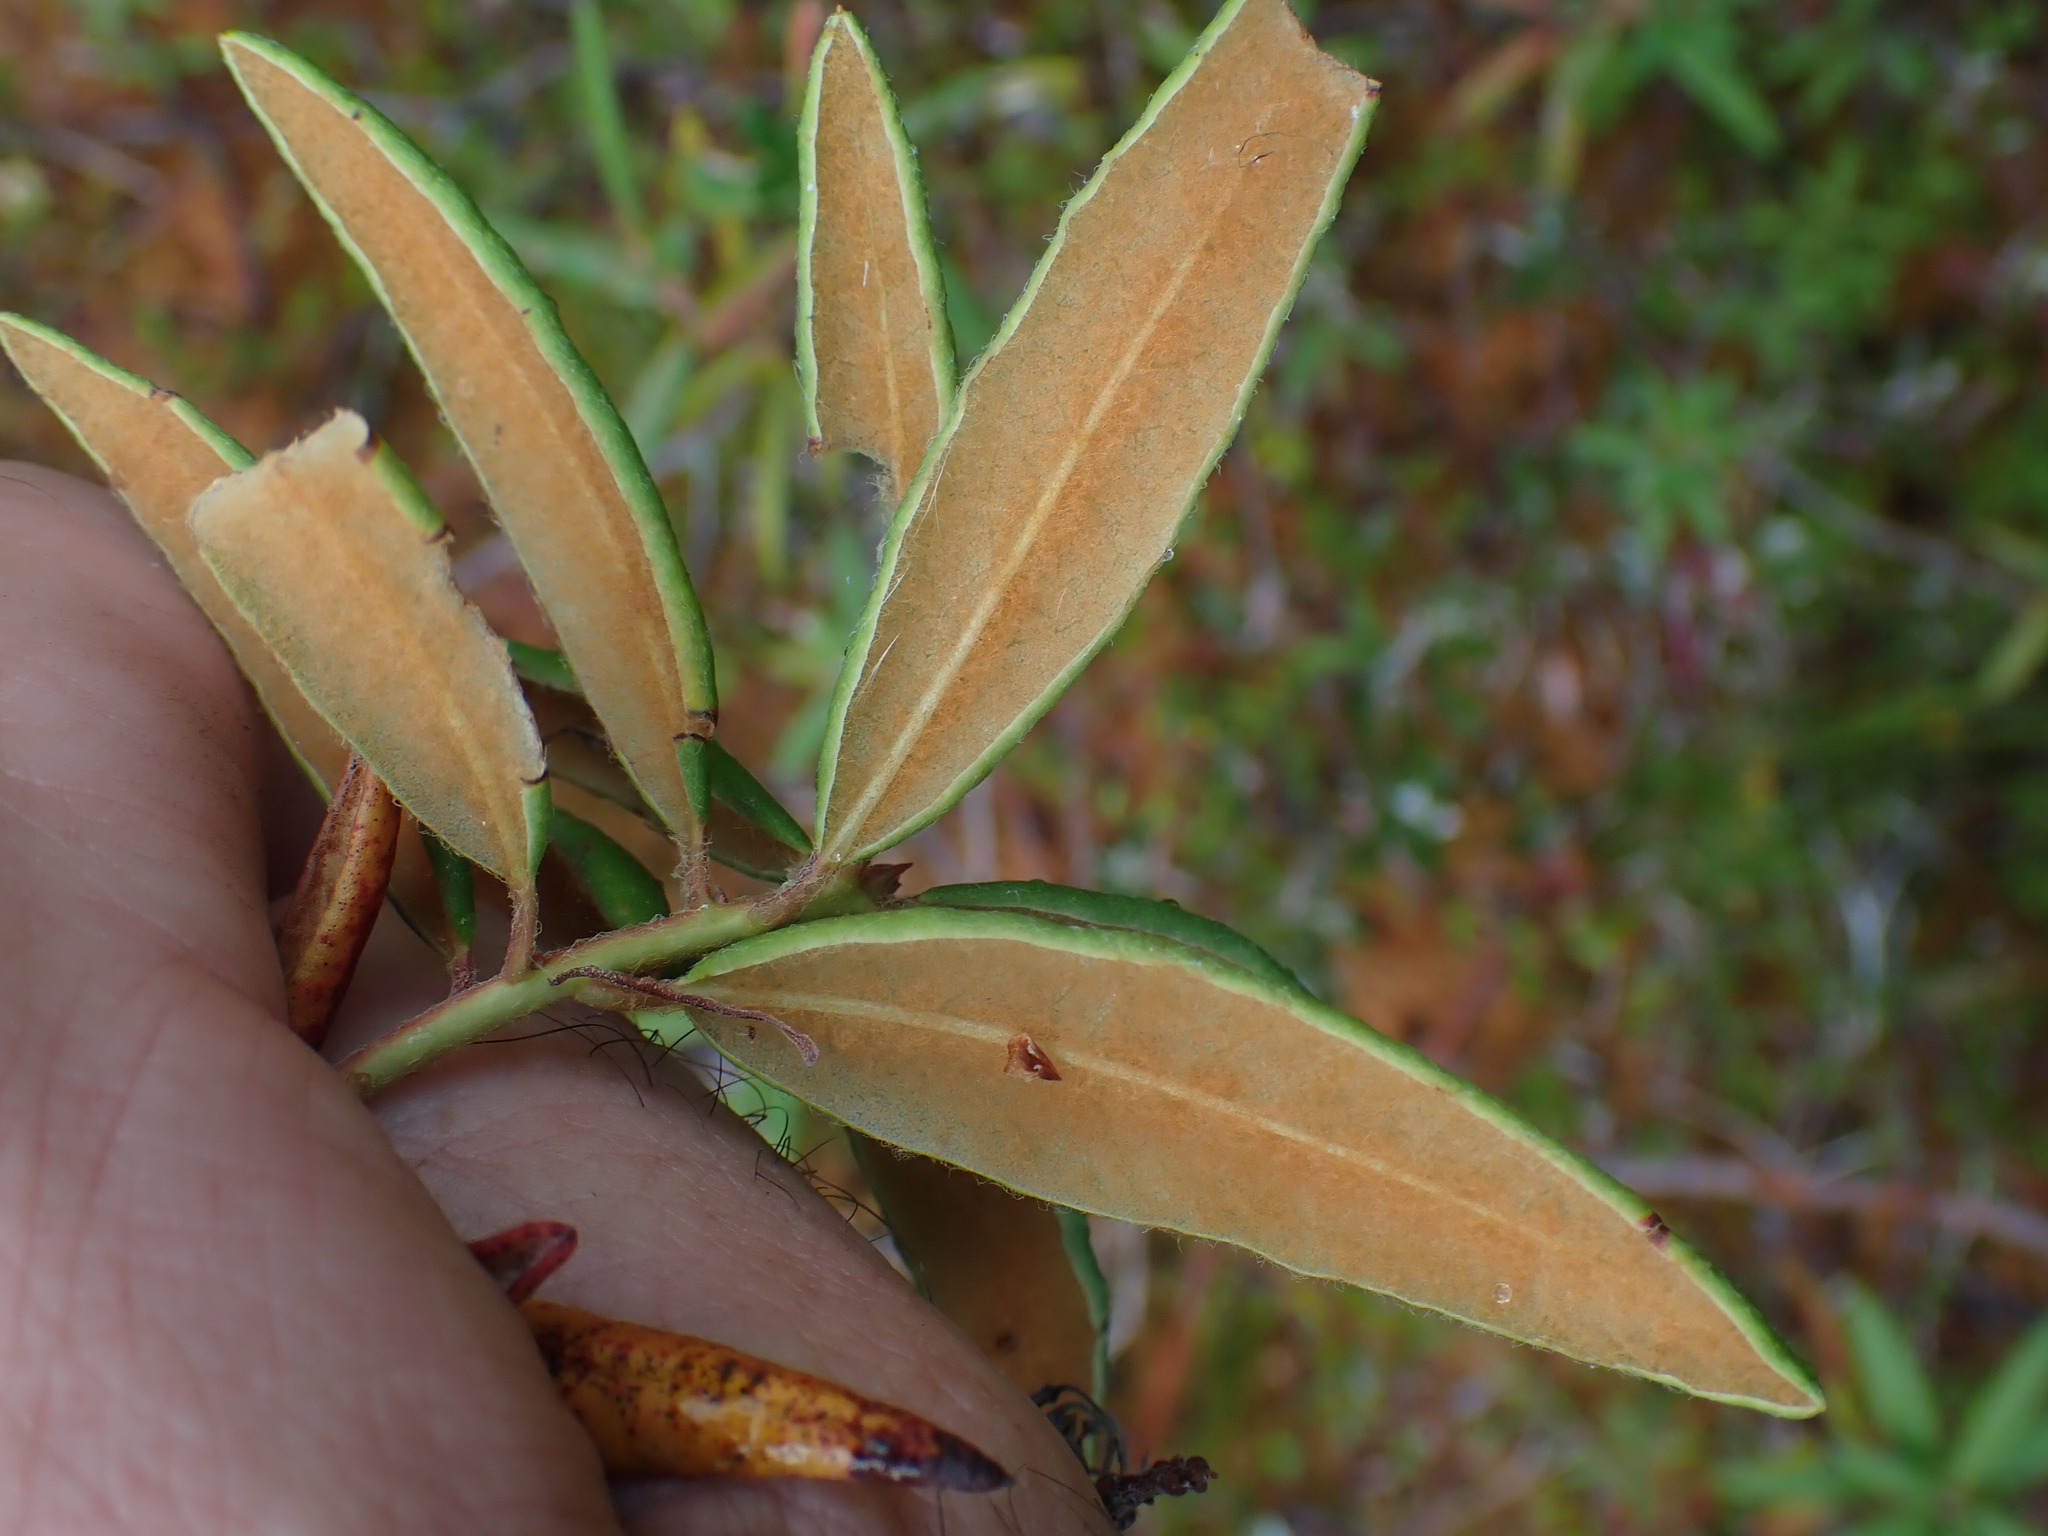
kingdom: Plantae
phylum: Tracheophyta
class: Magnoliopsida
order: Ericales
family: Ericaceae
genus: Rhododendron
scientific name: Rhododendron groenlandicum
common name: Bog labrador tea
